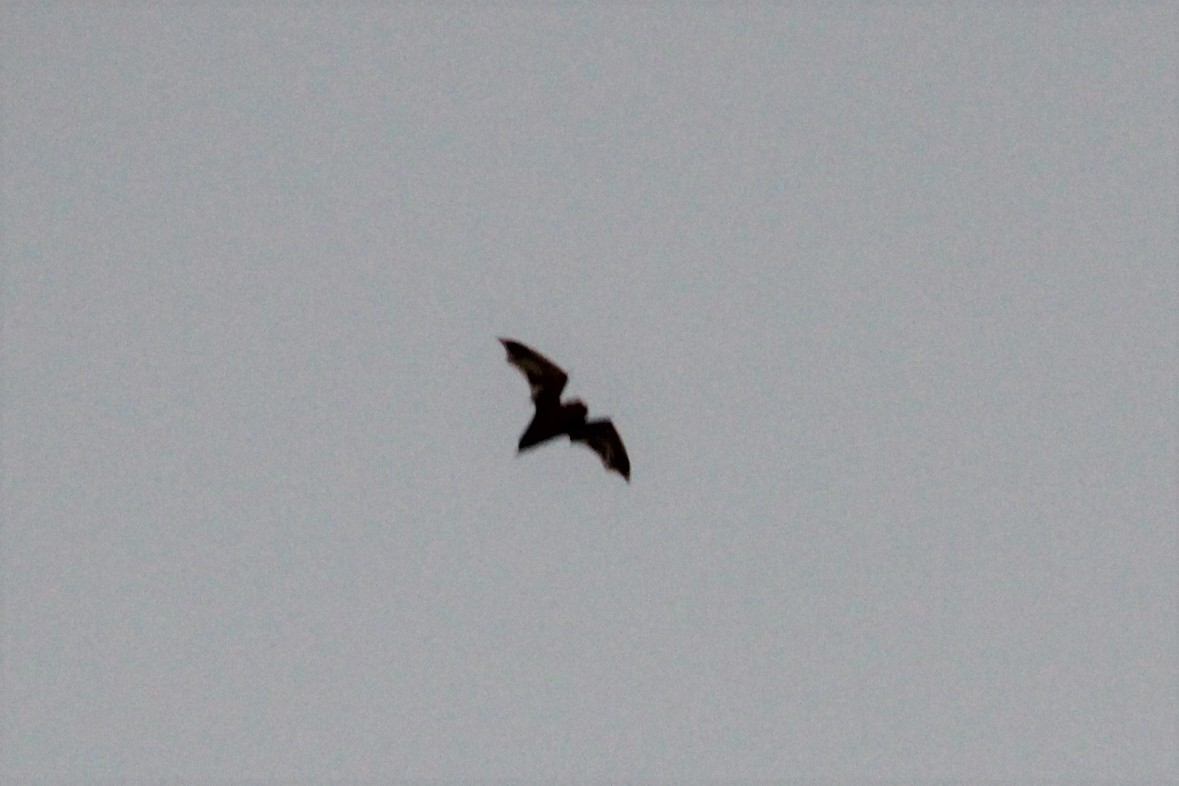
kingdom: Animalia
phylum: Chordata
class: Mammalia
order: Chiroptera
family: Vespertilionidae
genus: Lasiurus
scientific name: Lasiurus borealis
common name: Eastern red bat
